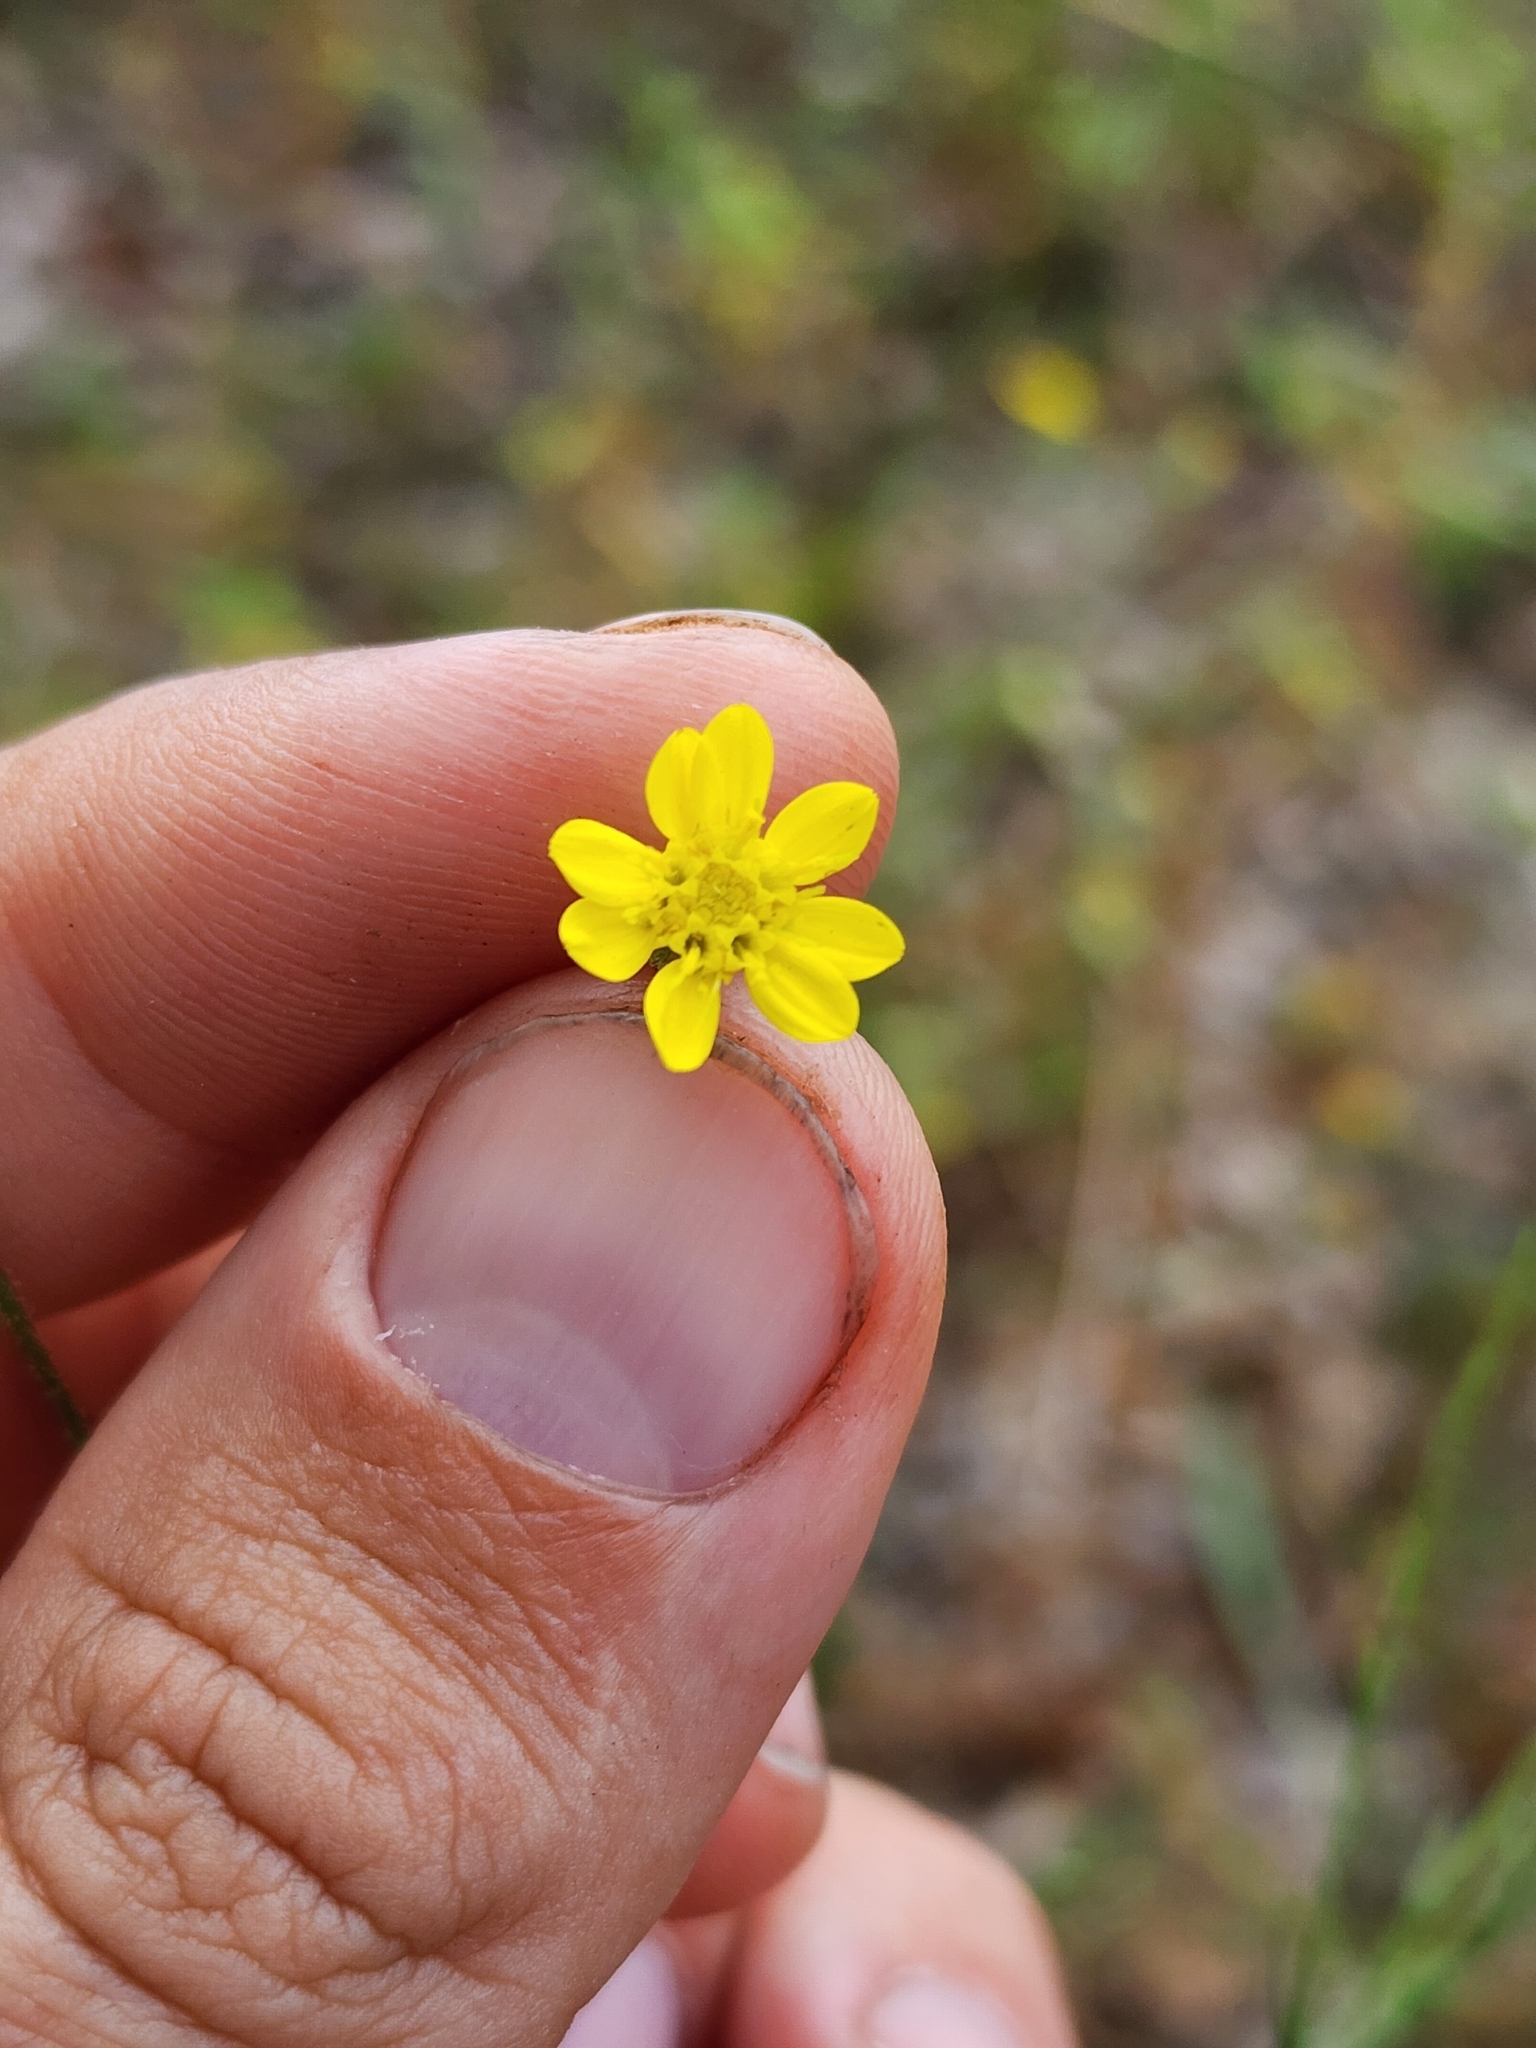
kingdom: Plantae
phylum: Tracheophyta
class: Magnoliopsida
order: Asterales
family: Asteraceae
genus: Pityopsis
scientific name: Pityopsis aspera
